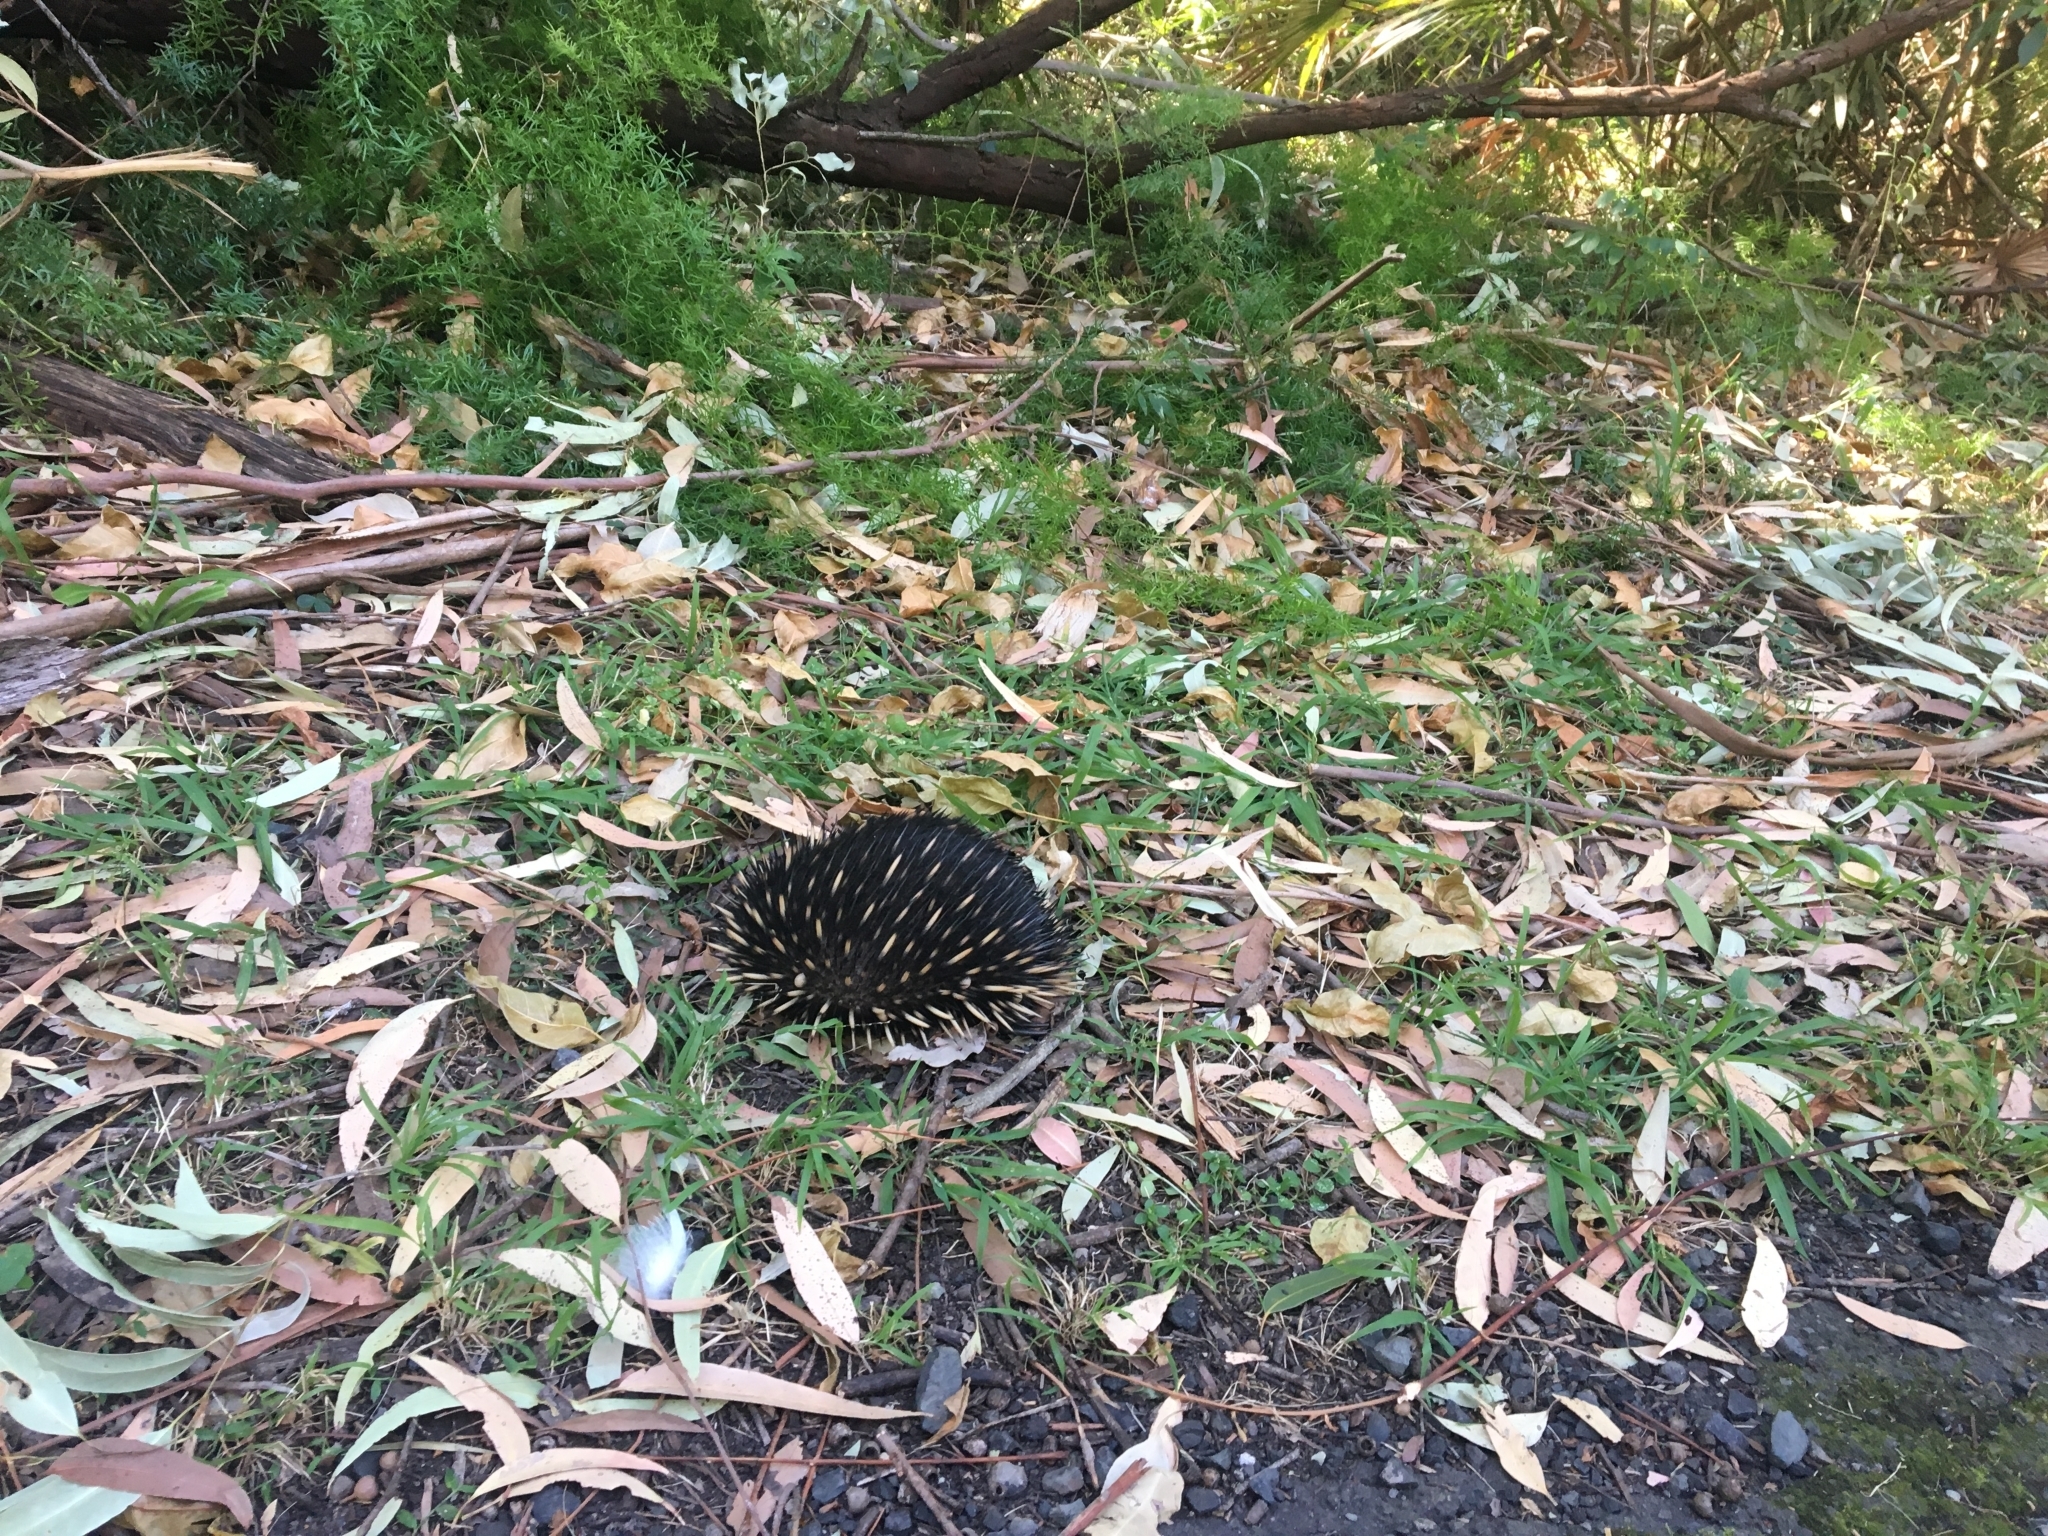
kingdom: Animalia
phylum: Chordata
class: Mammalia
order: Monotremata
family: Tachyglossidae
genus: Tachyglossus
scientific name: Tachyglossus aculeatus
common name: Short-beaked echidna
